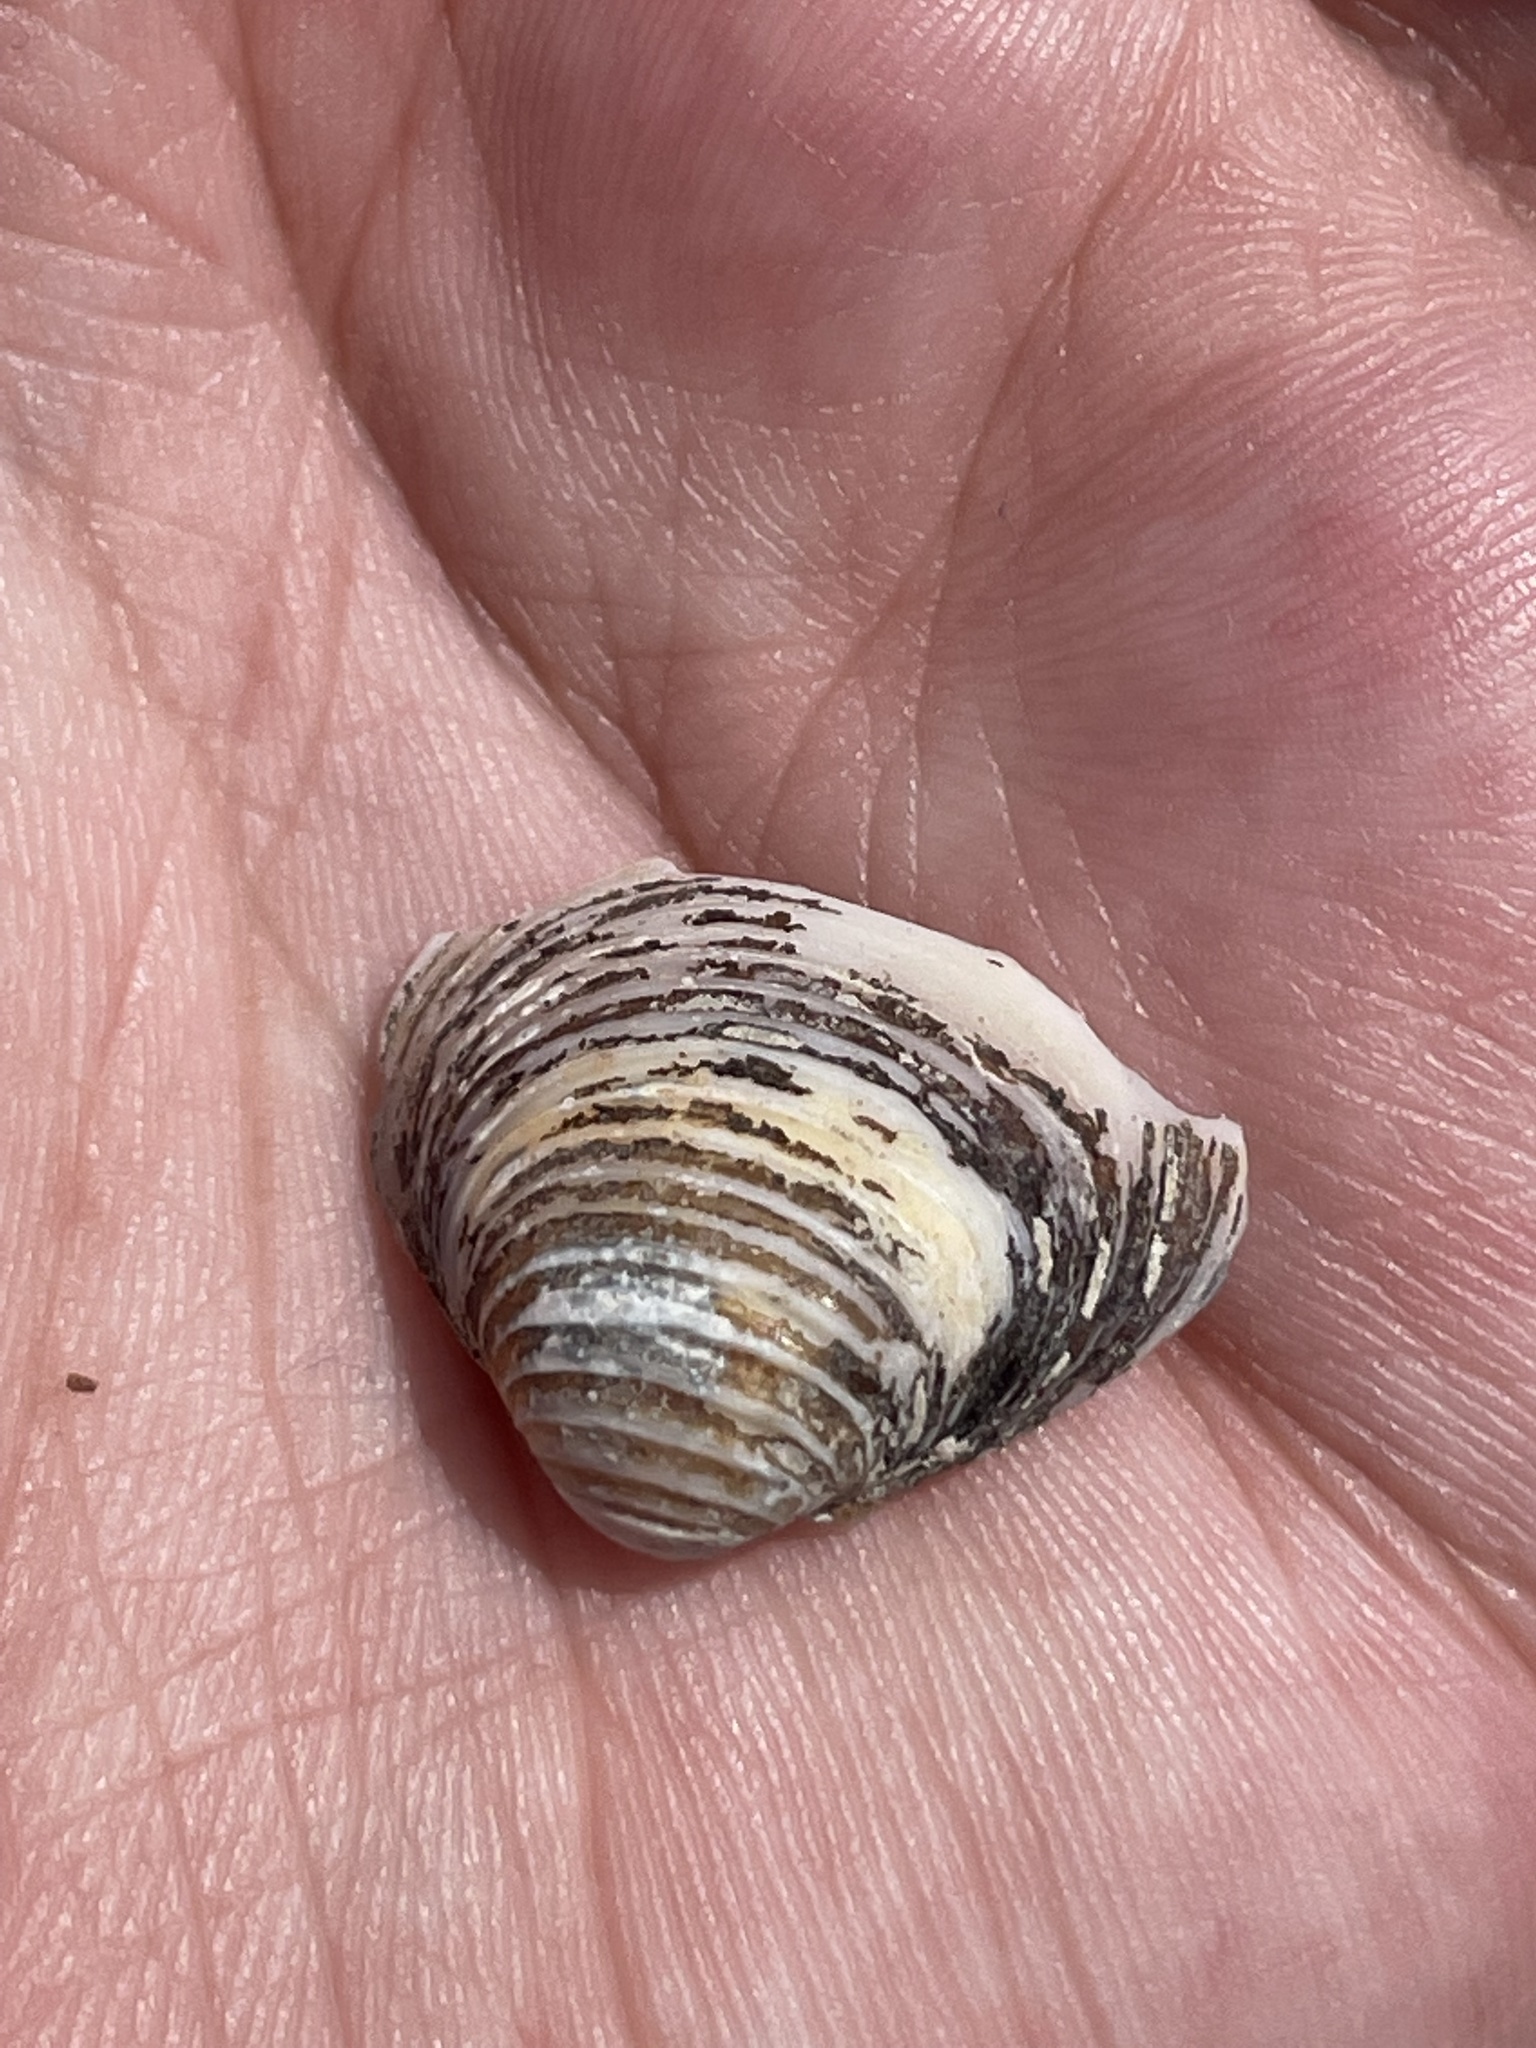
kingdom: Animalia
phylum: Mollusca
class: Bivalvia
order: Venerida
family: Cyrenidae
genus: Corbicula
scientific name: Corbicula fluminea
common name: Asian clam
